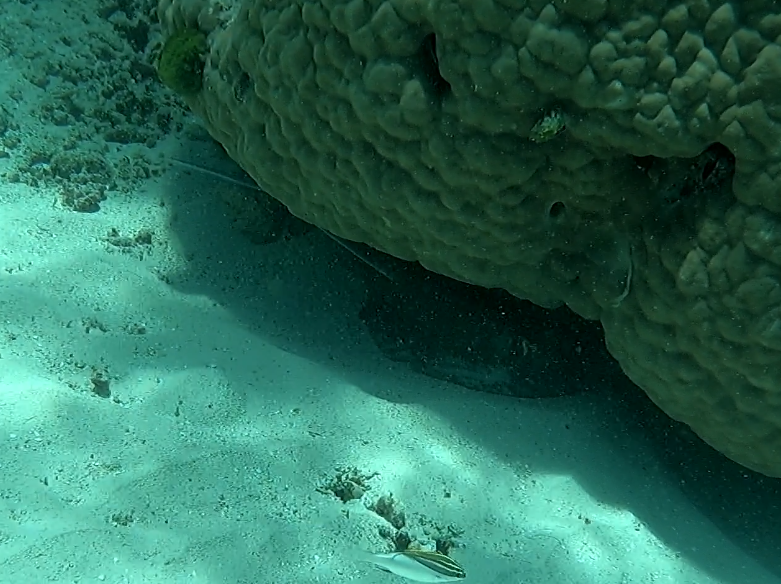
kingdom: Animalia
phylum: Chordata
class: Elasmobranchii
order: Myliobatiformes
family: Dasyatidae
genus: Taeniura
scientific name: Taeniura lymma
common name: Bluespotted ribbontail ray
